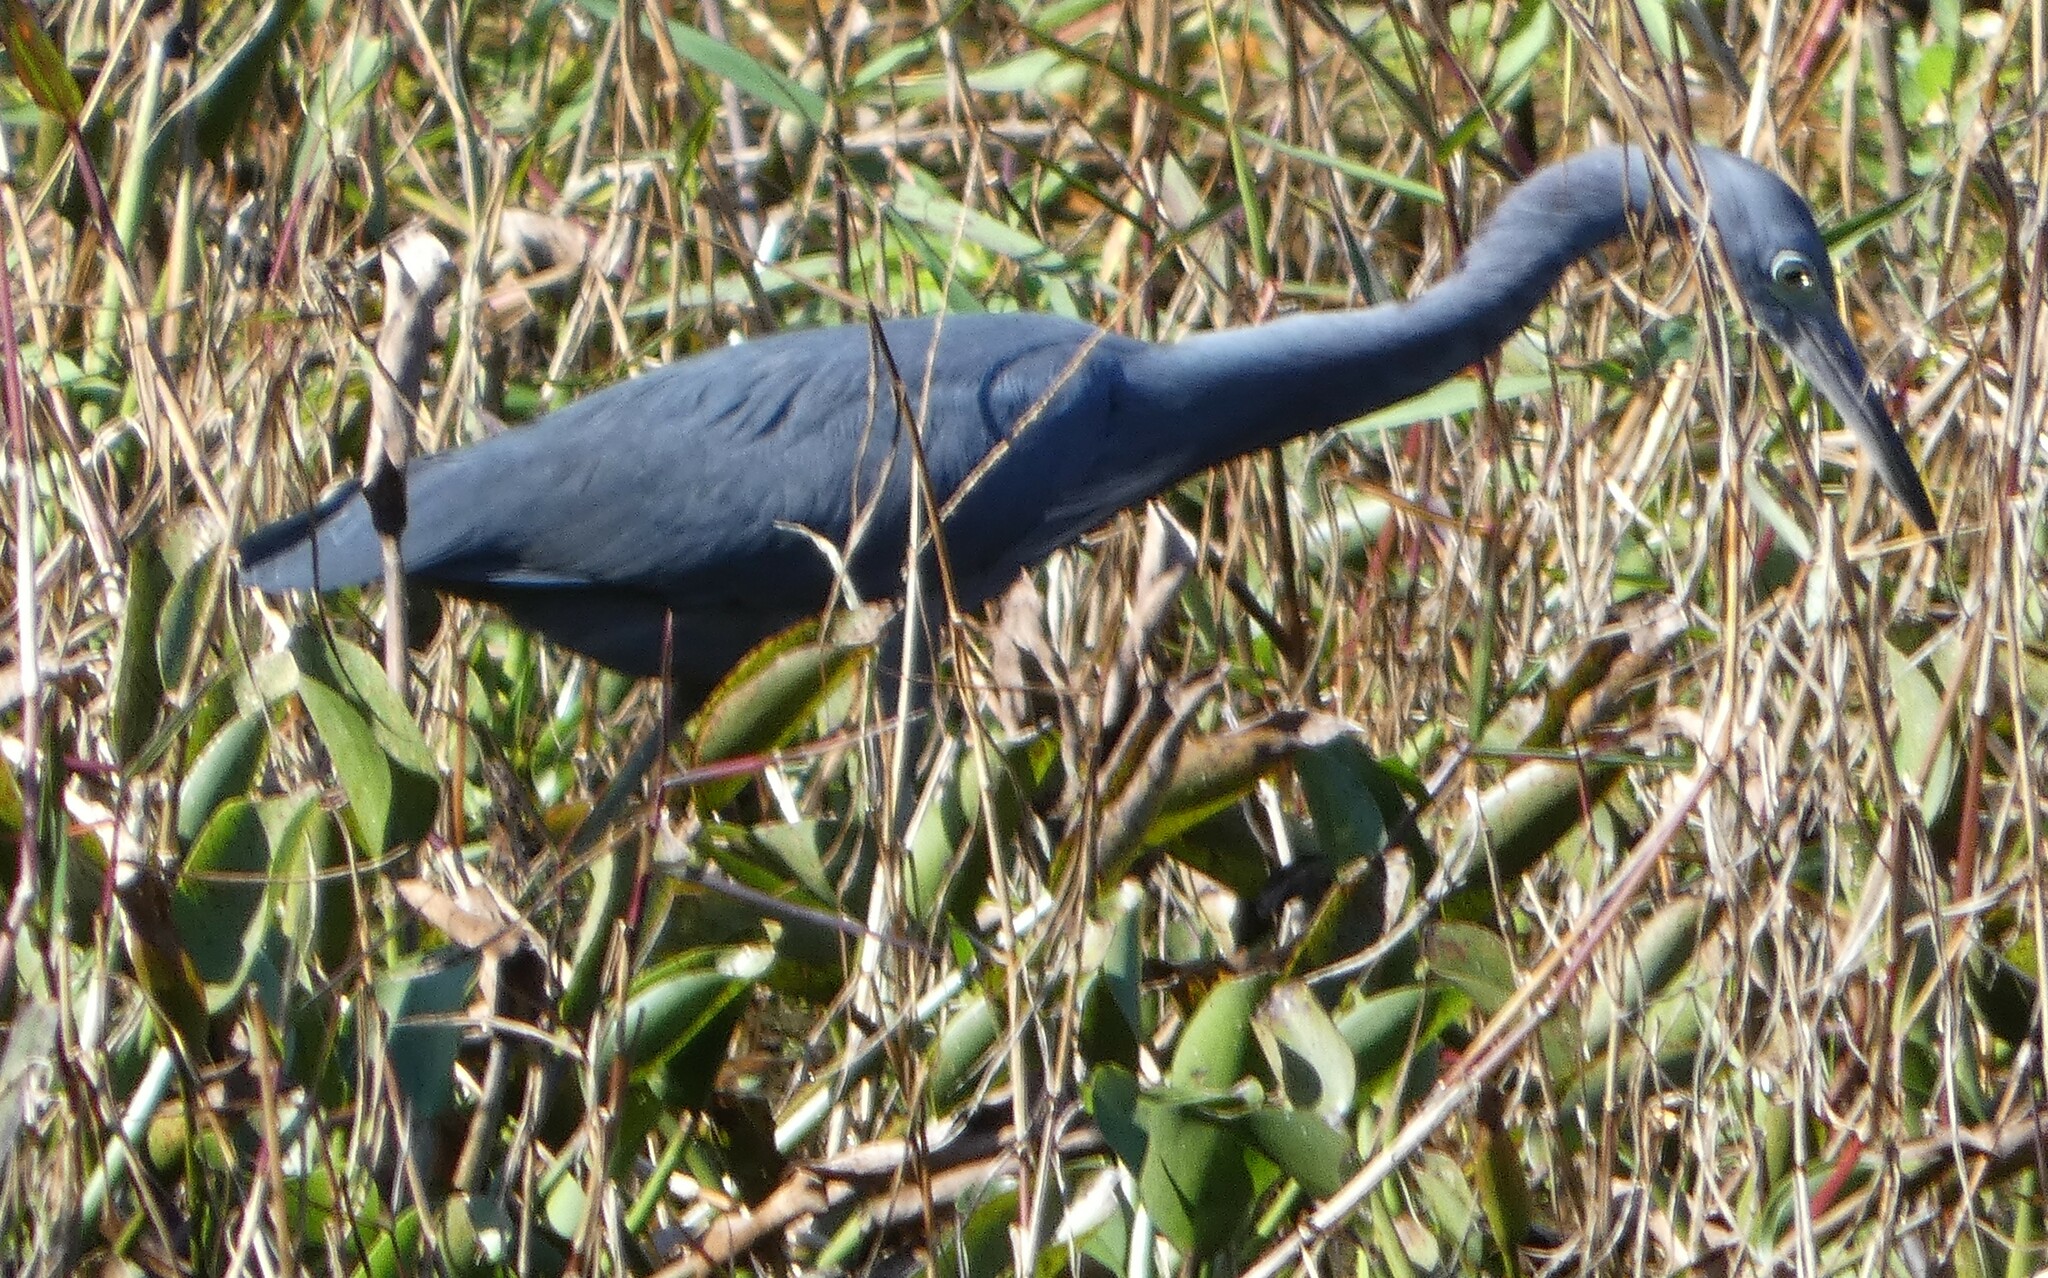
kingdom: Animalia
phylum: Chordata
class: Aves
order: Pelecaniformes
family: Ardeidae
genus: Egretta
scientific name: Egretta caerulea
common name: Little blue heron
